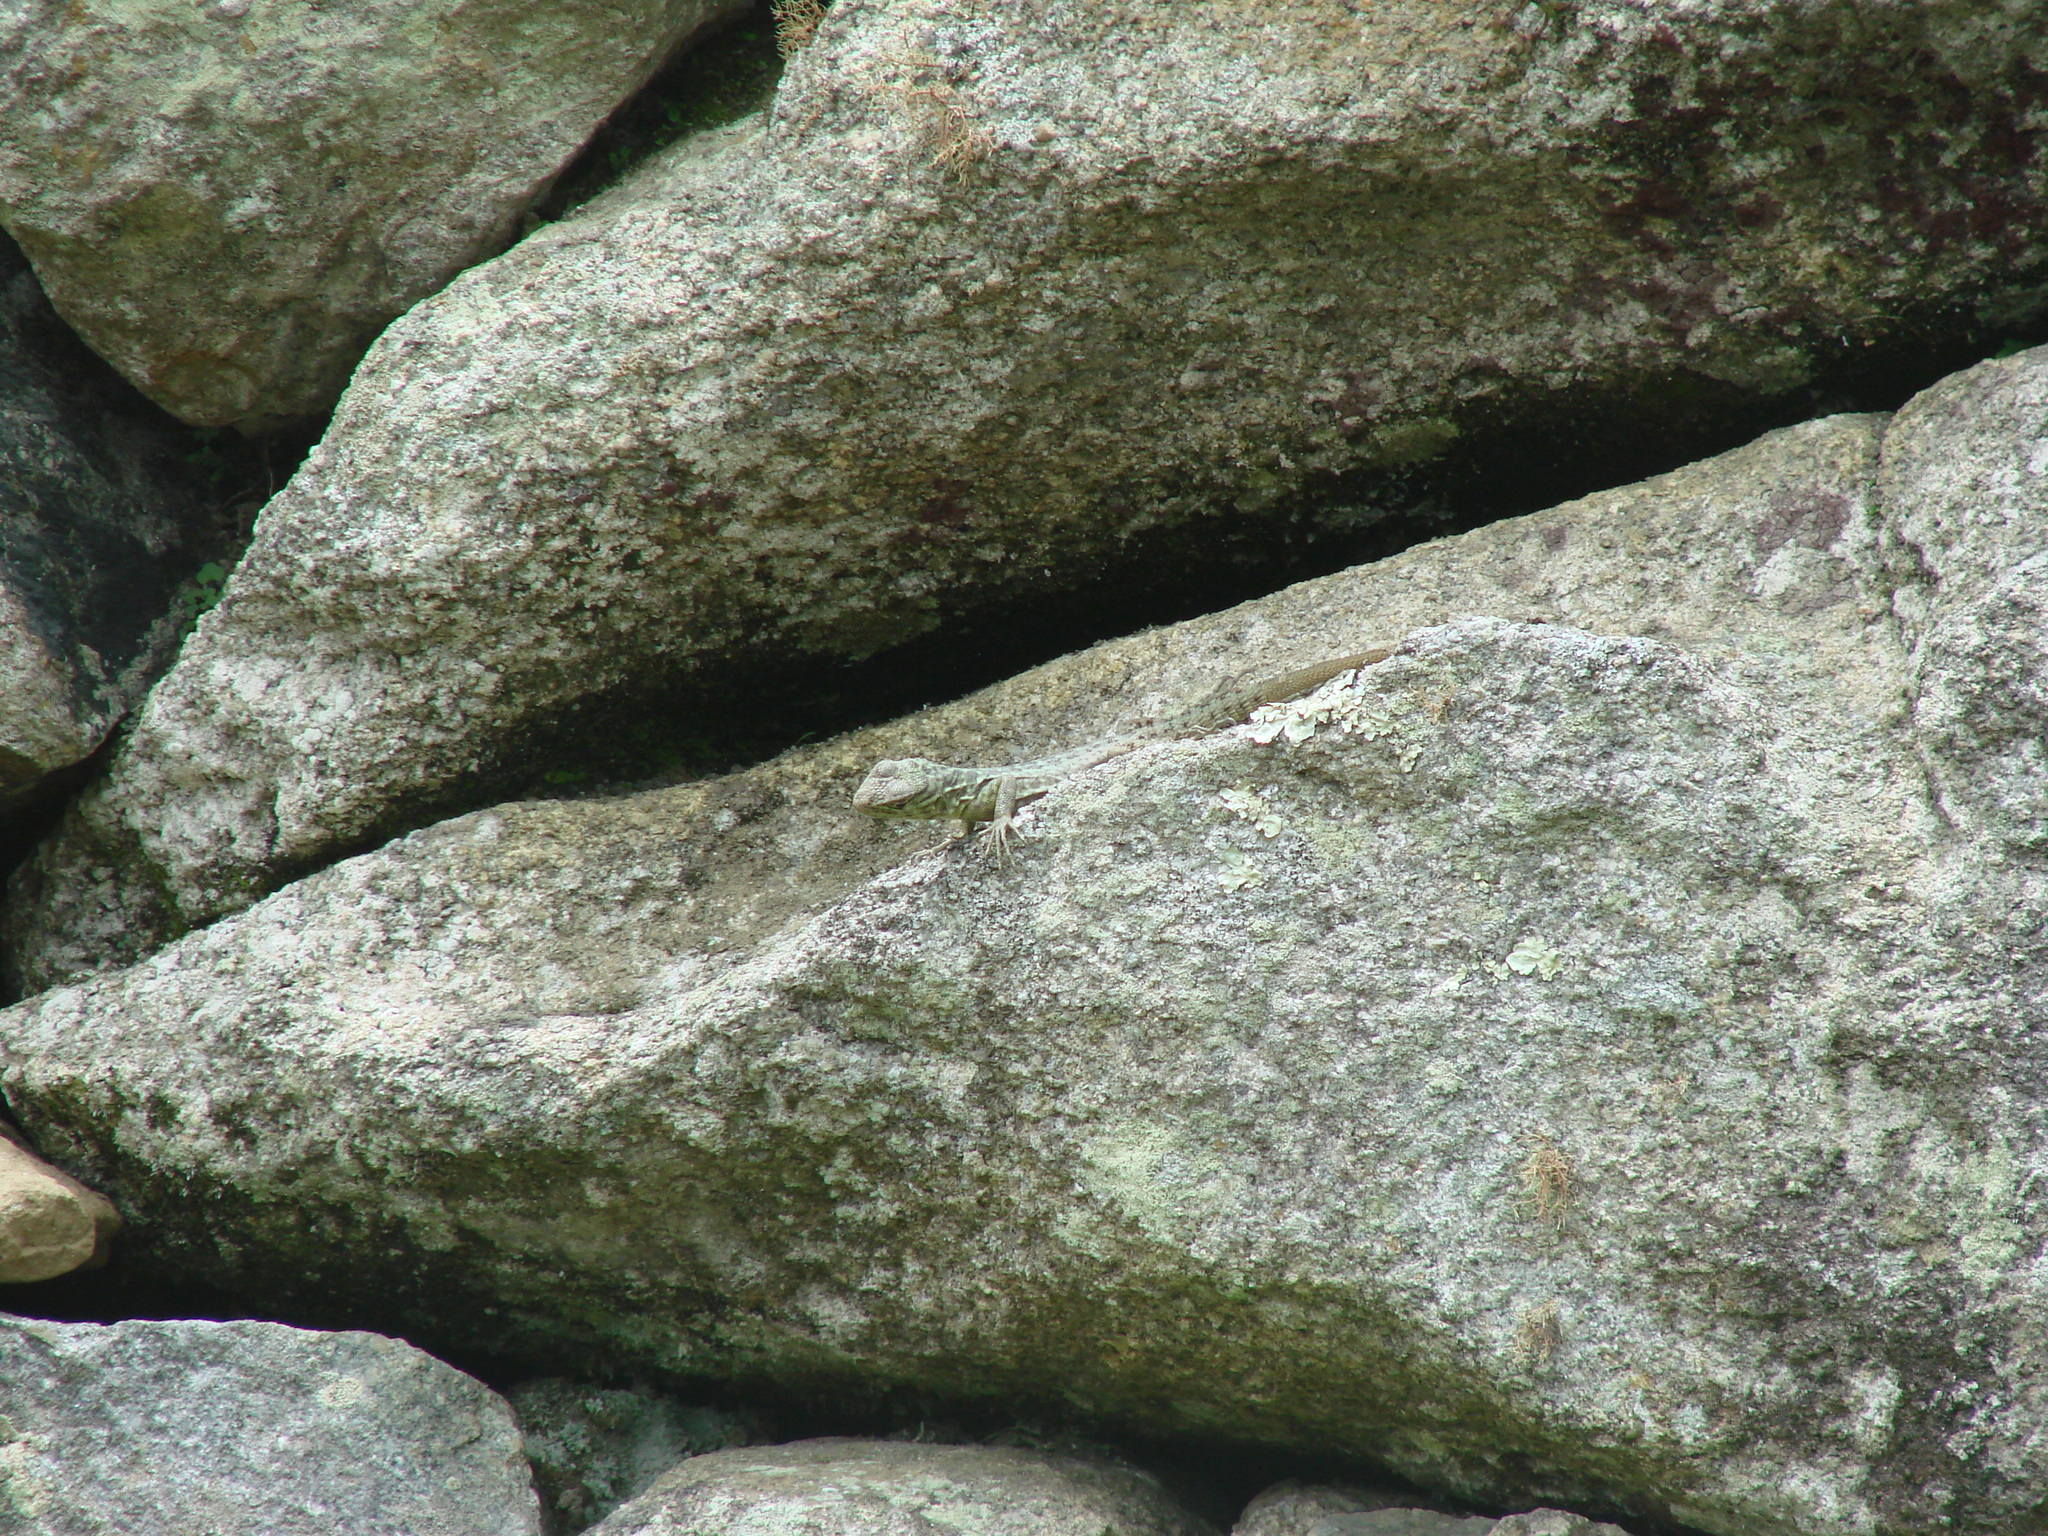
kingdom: Animalia
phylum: Chordata
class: Squamata
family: Tropiduridae
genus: Stenocercus
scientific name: Stenocercus crassicaudatus
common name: Spiny whorltail iguana
